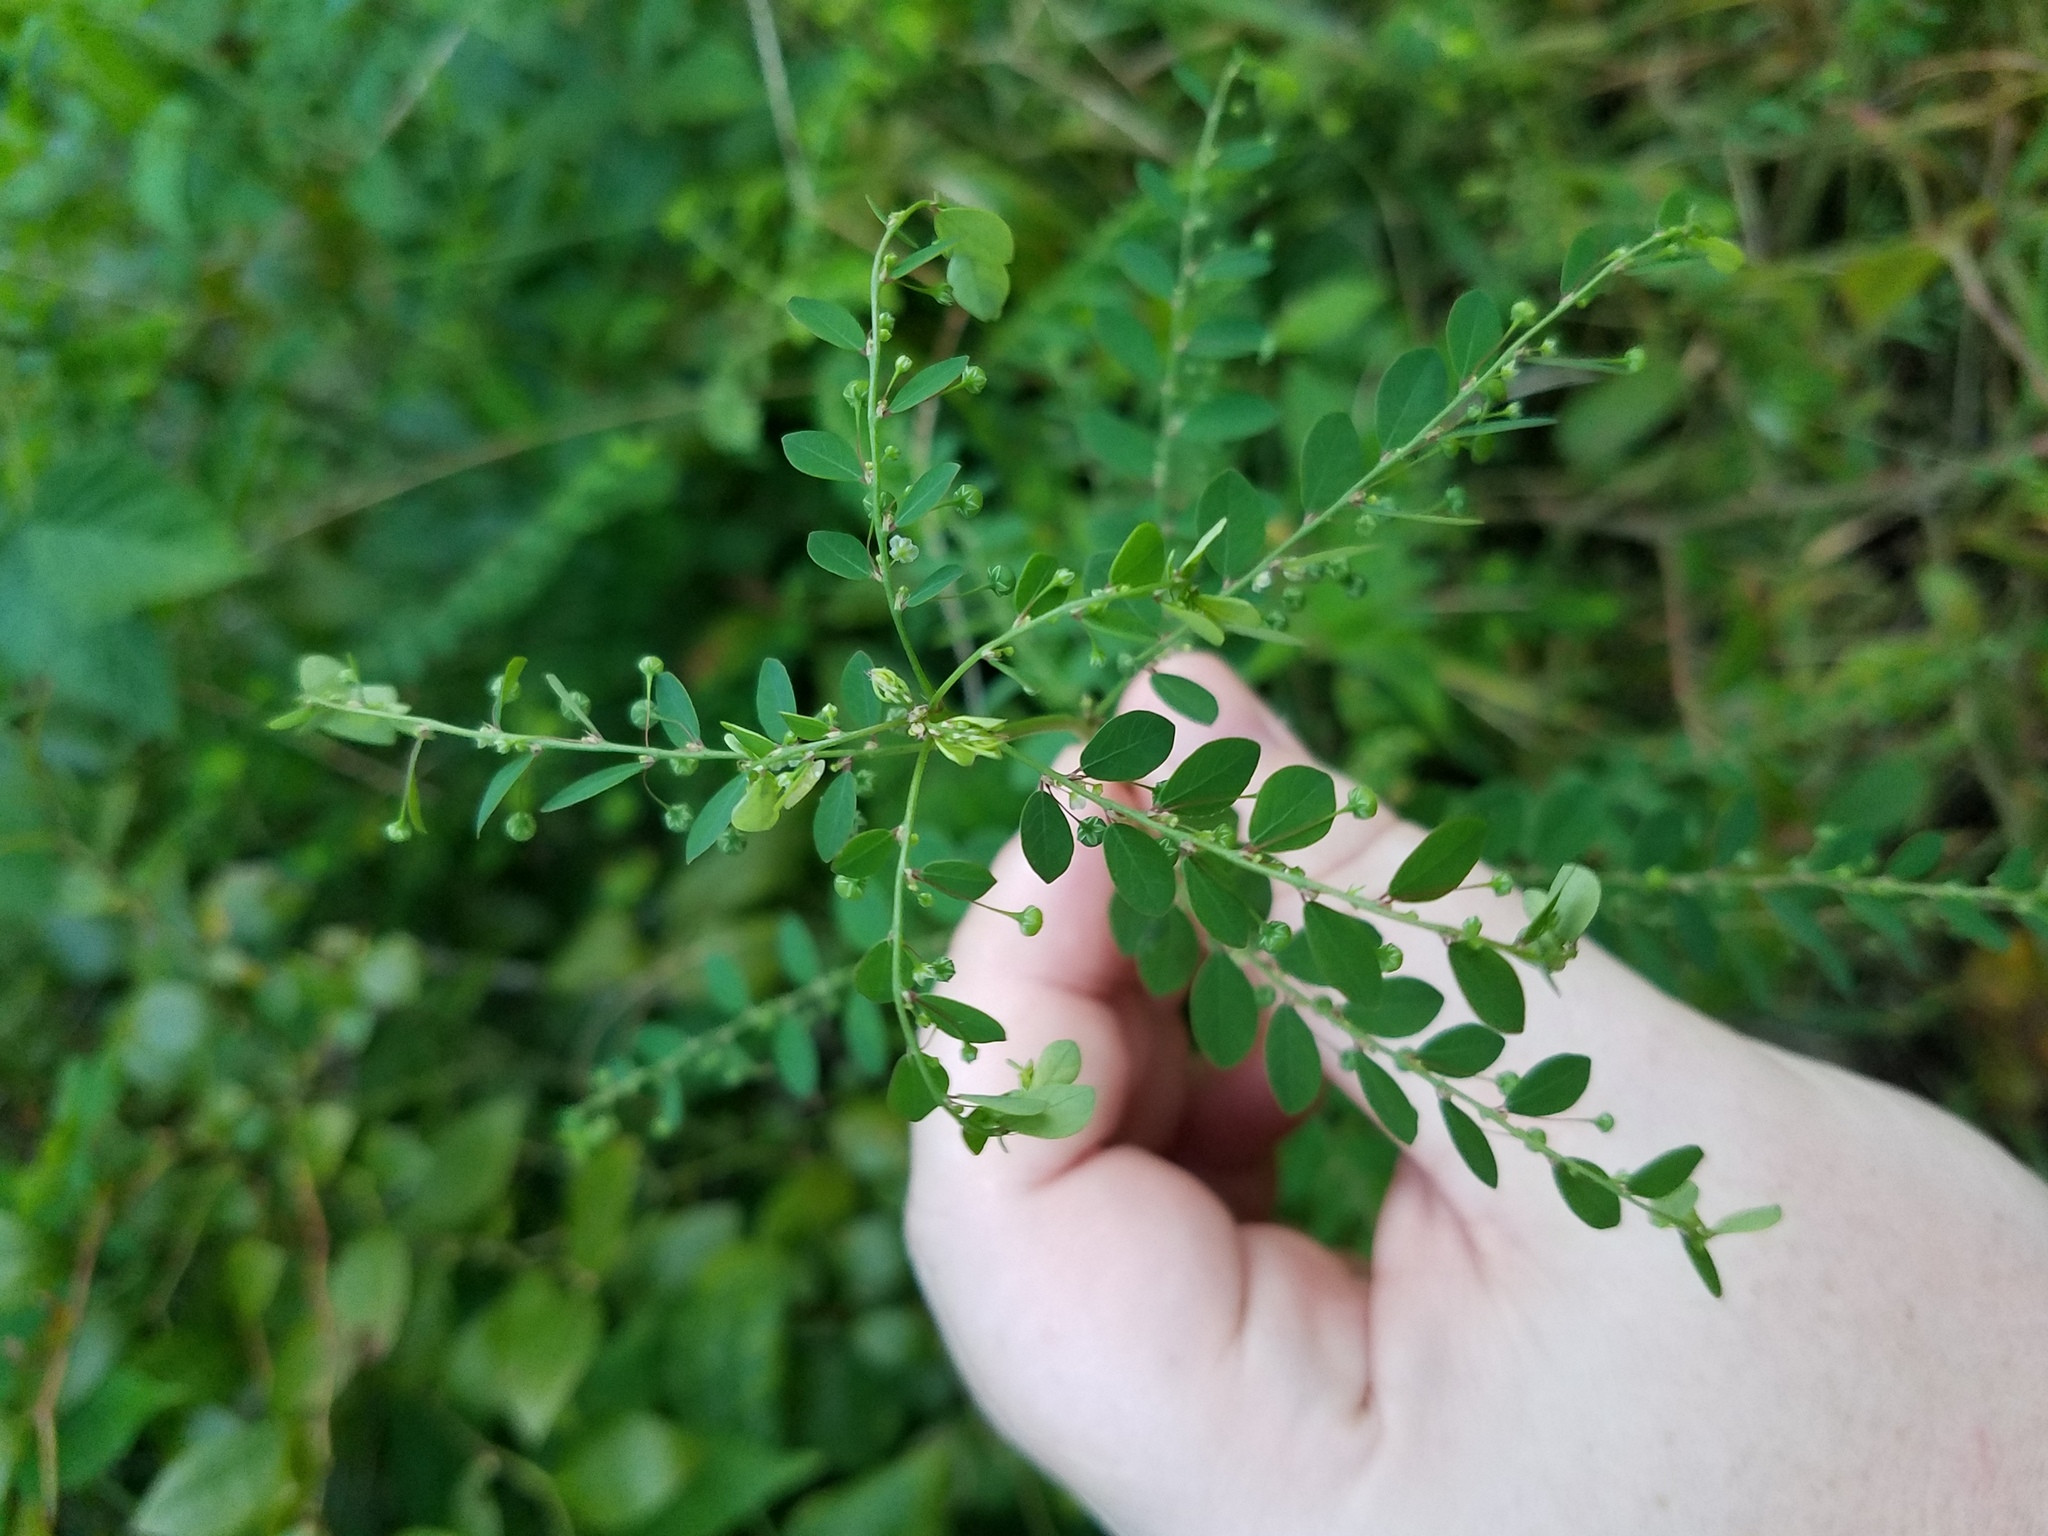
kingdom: Plantae
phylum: Tracheophyta
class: Magnoliopsida
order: Malpighiales
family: Phyllanthaceae
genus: Phyllanthus
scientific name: Phyllanthus tenellus
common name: Mascarene island leaf-flower
